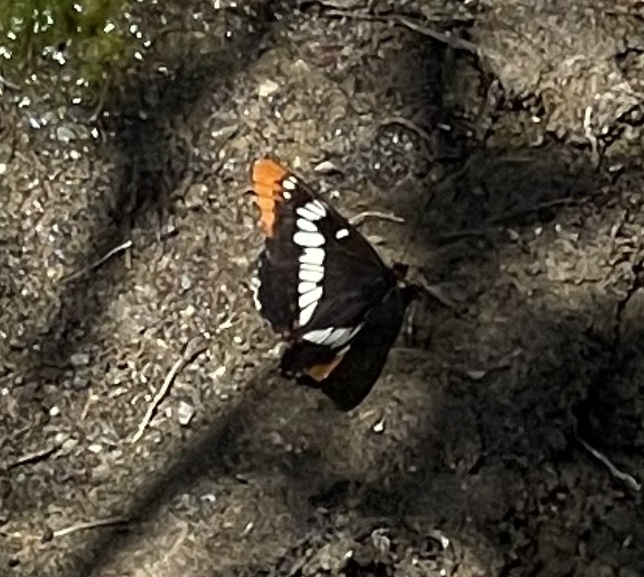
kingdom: Animalia
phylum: Arthropoda
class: Insecta
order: Lepidoptera
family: Nymphalidae
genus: Limenitis
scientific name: Limenitis lorquini
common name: Lorquin's admiral
